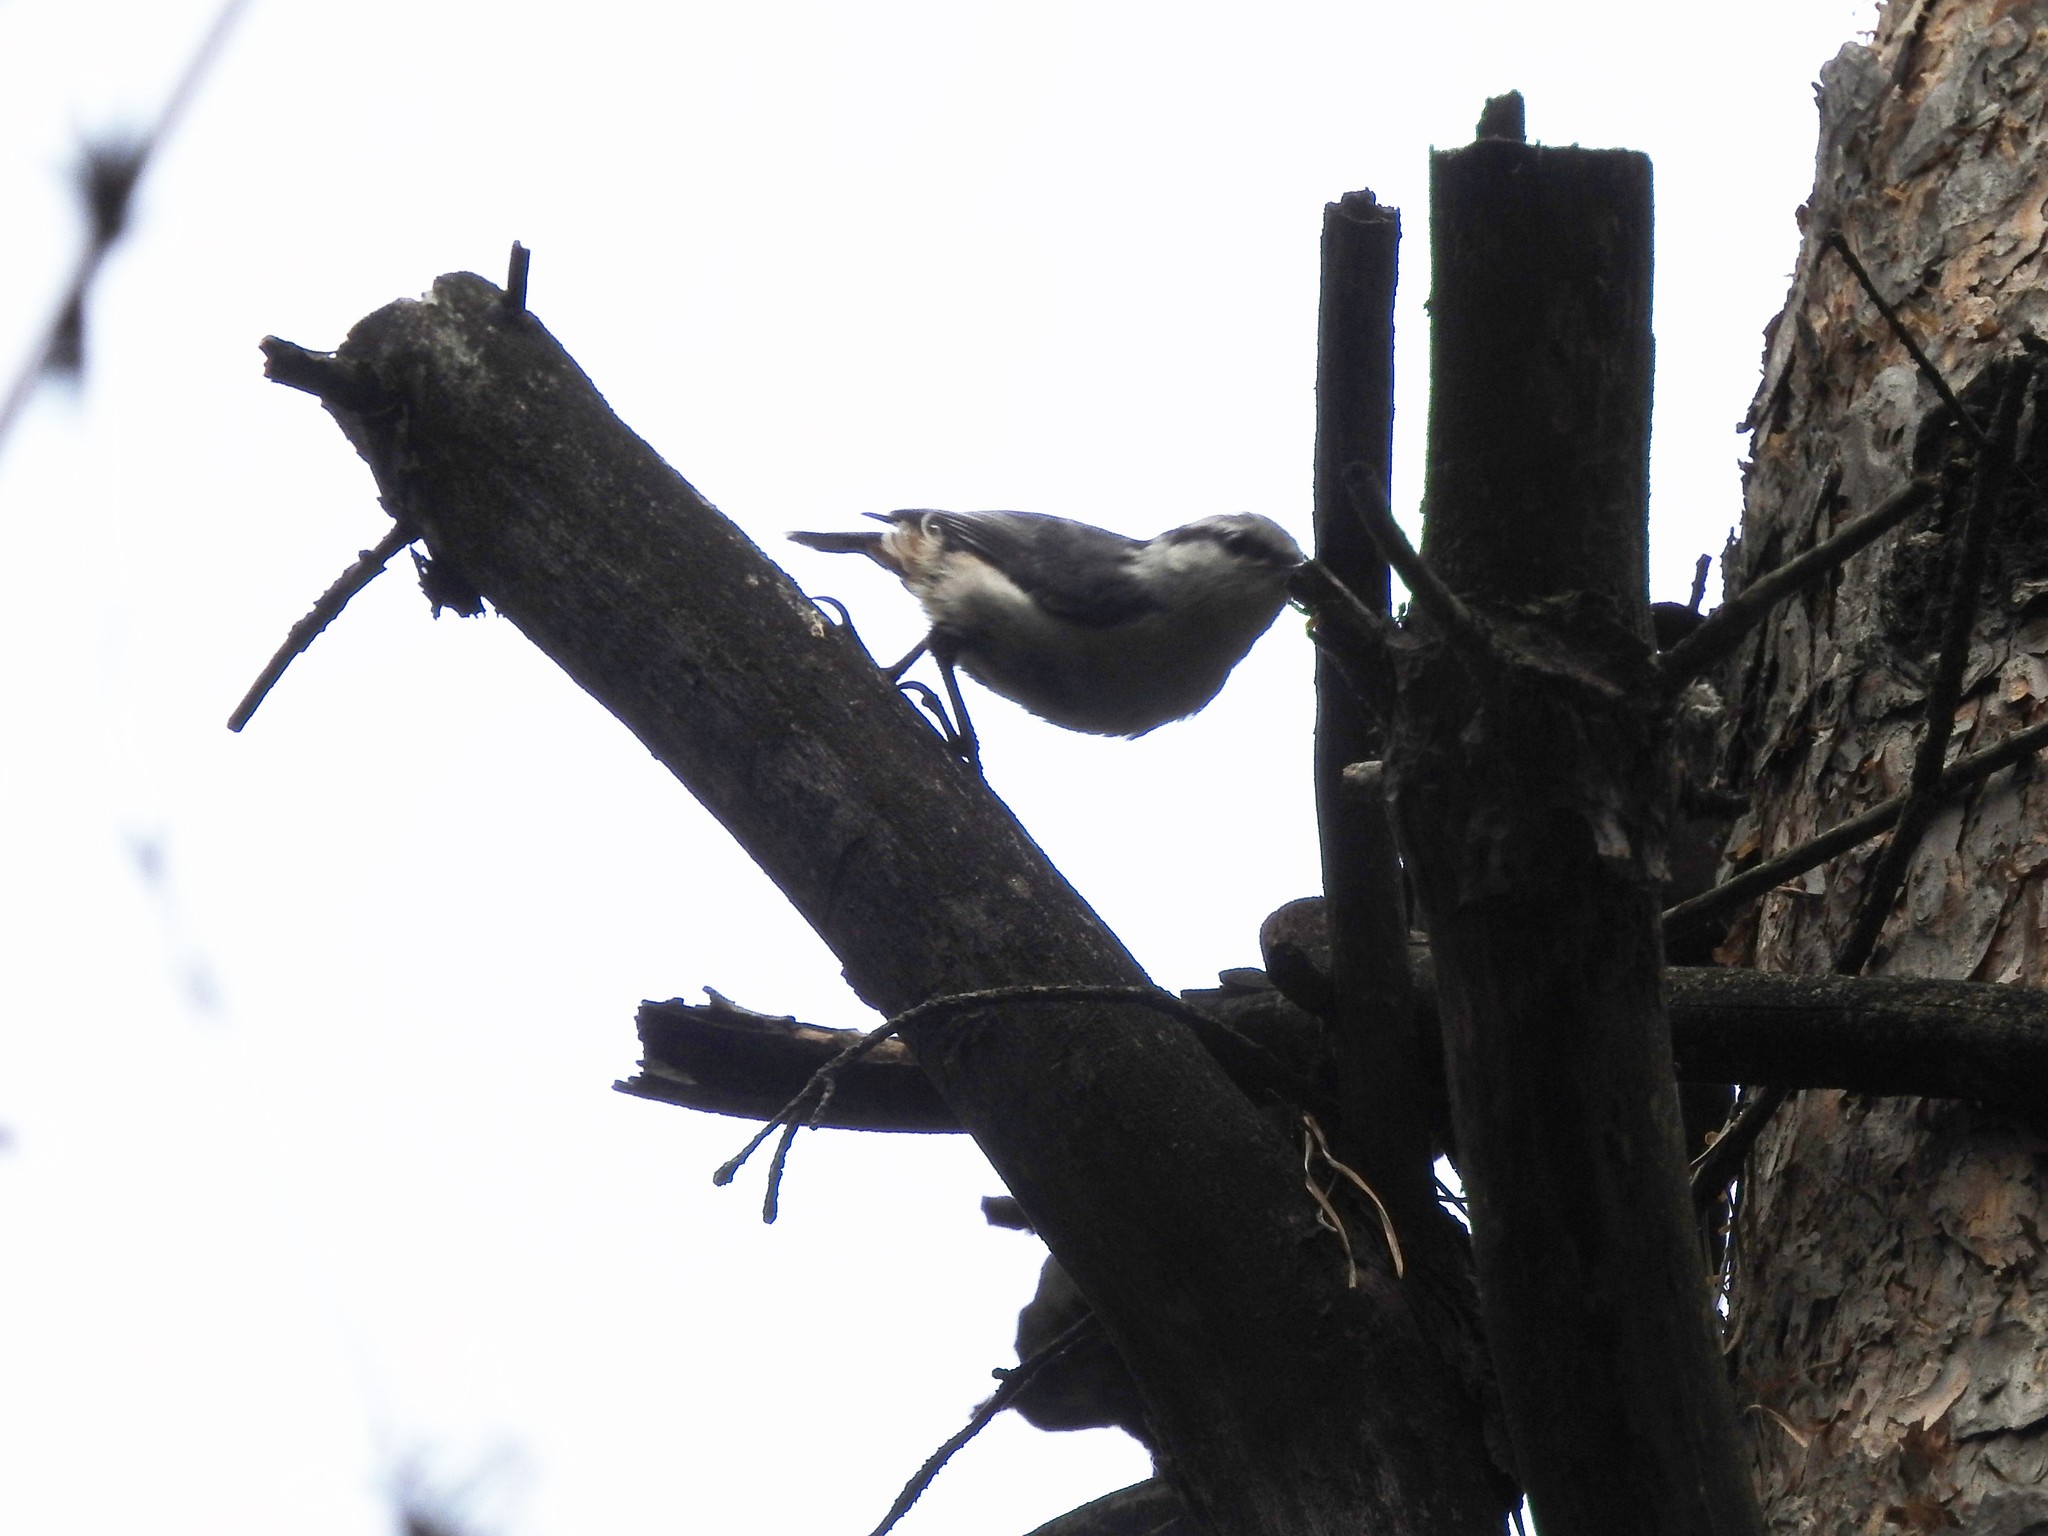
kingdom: Animalia
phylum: Chordata
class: Aves
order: Passeriformes
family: Sittidae
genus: Sitta
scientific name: Sitta europaea
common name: Eurasian nuthatch
